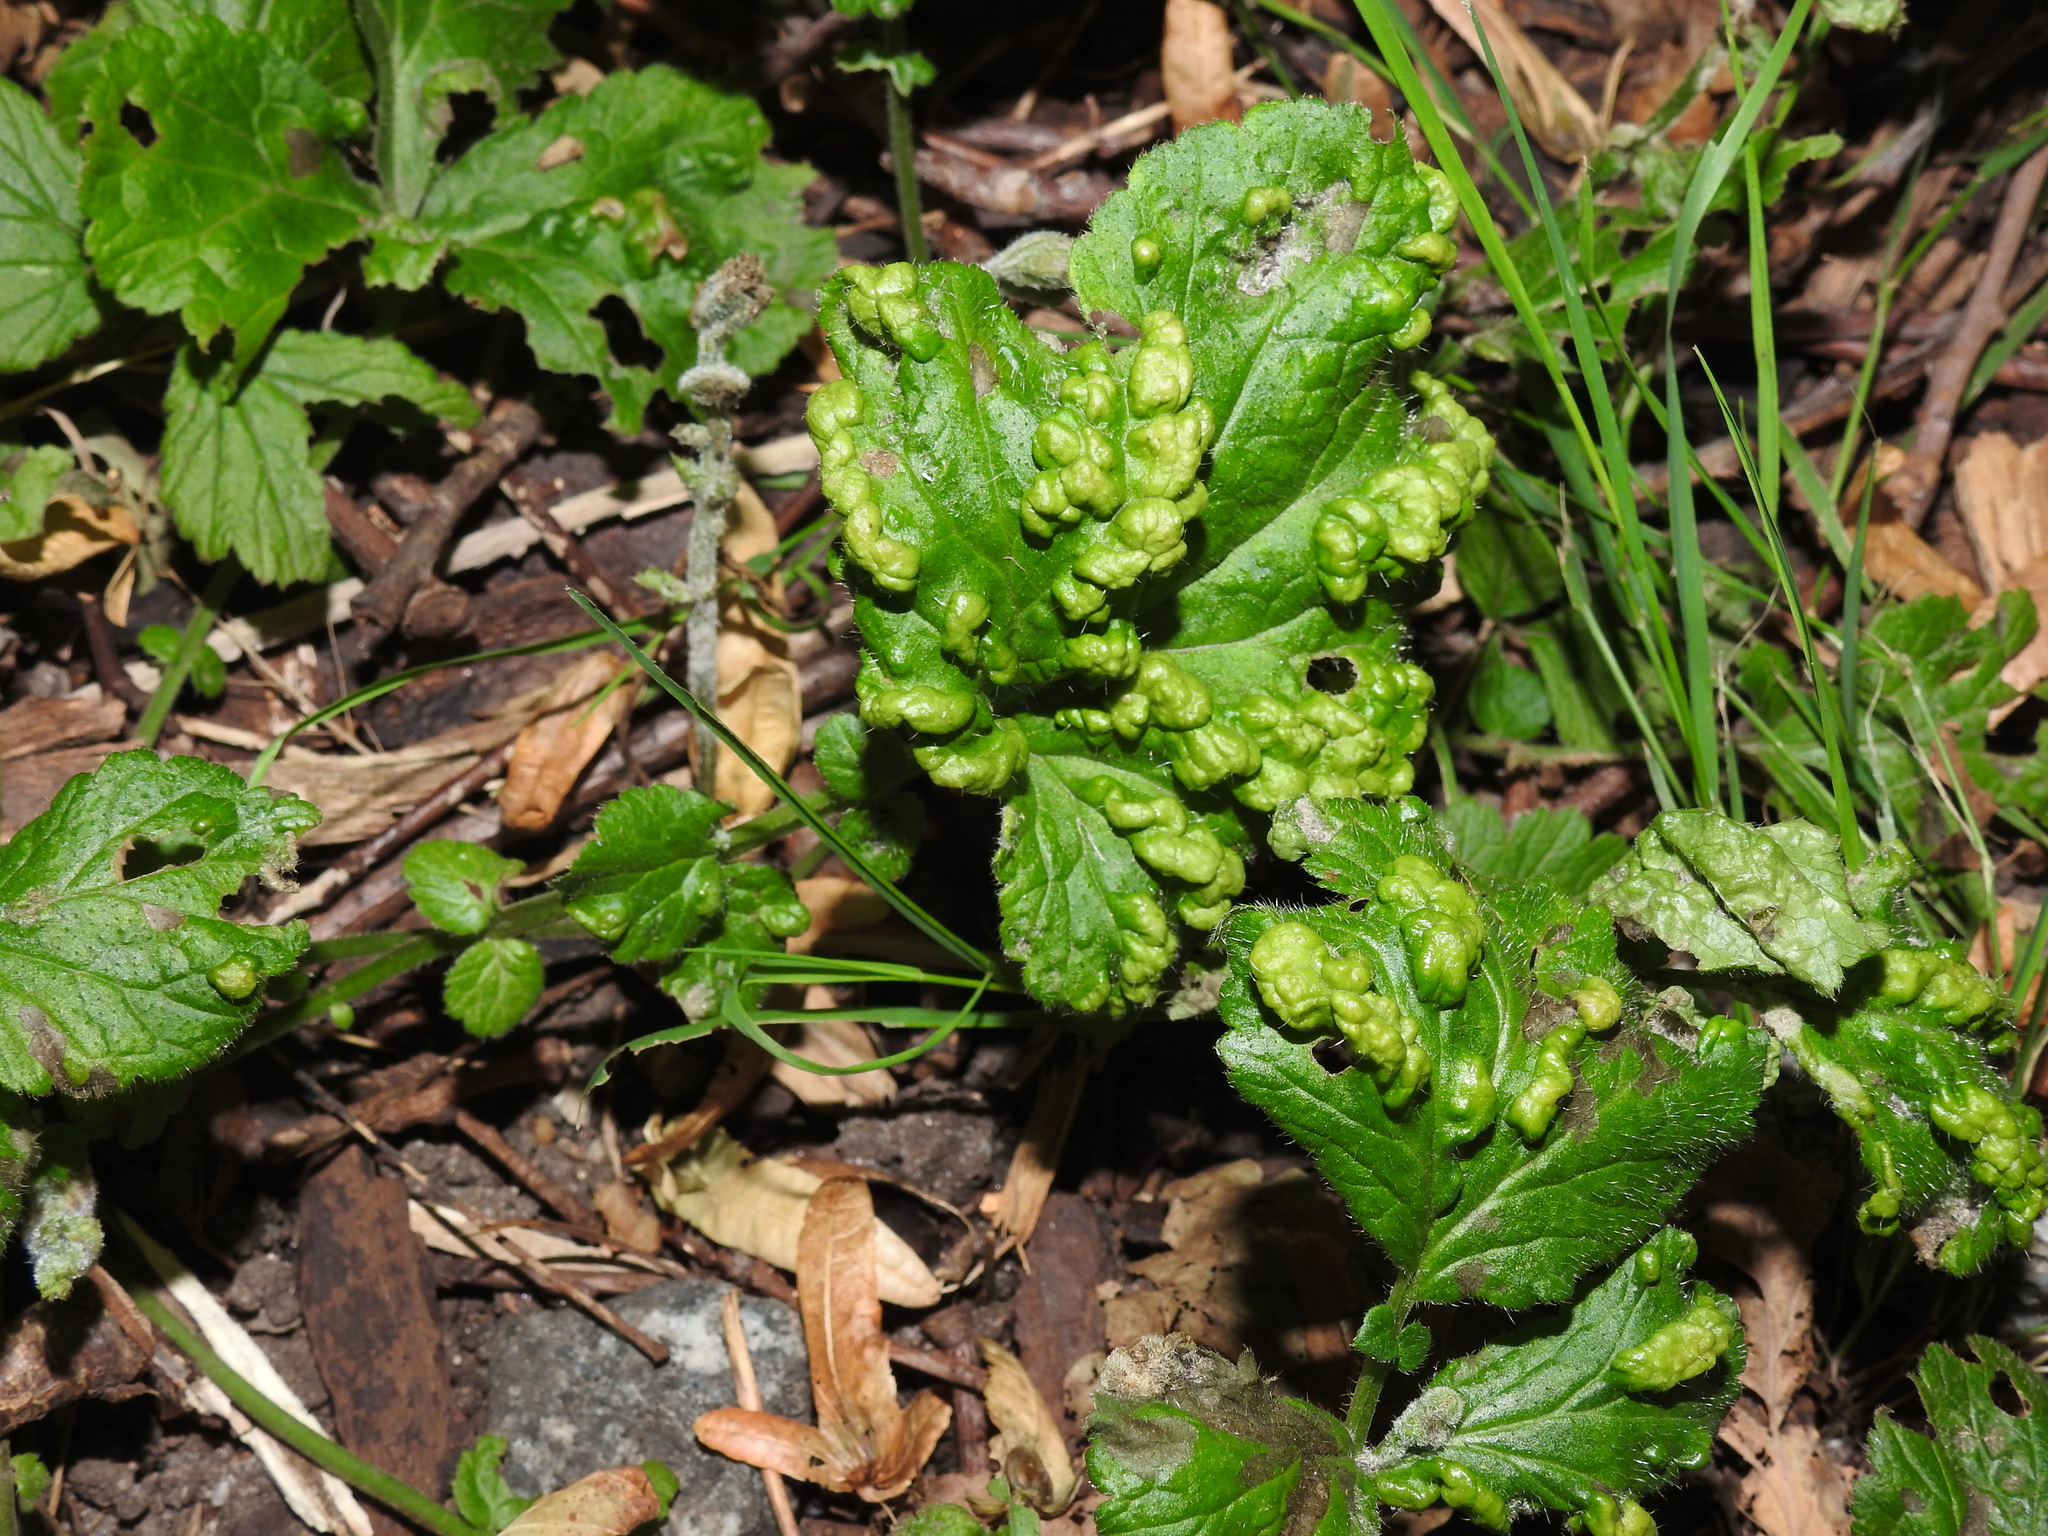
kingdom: Animalia
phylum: Arthropoda
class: Arachnida
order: Trombidiformes
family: Eriophyidae
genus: Cecidophyes
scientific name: Cecidophyes nudus
